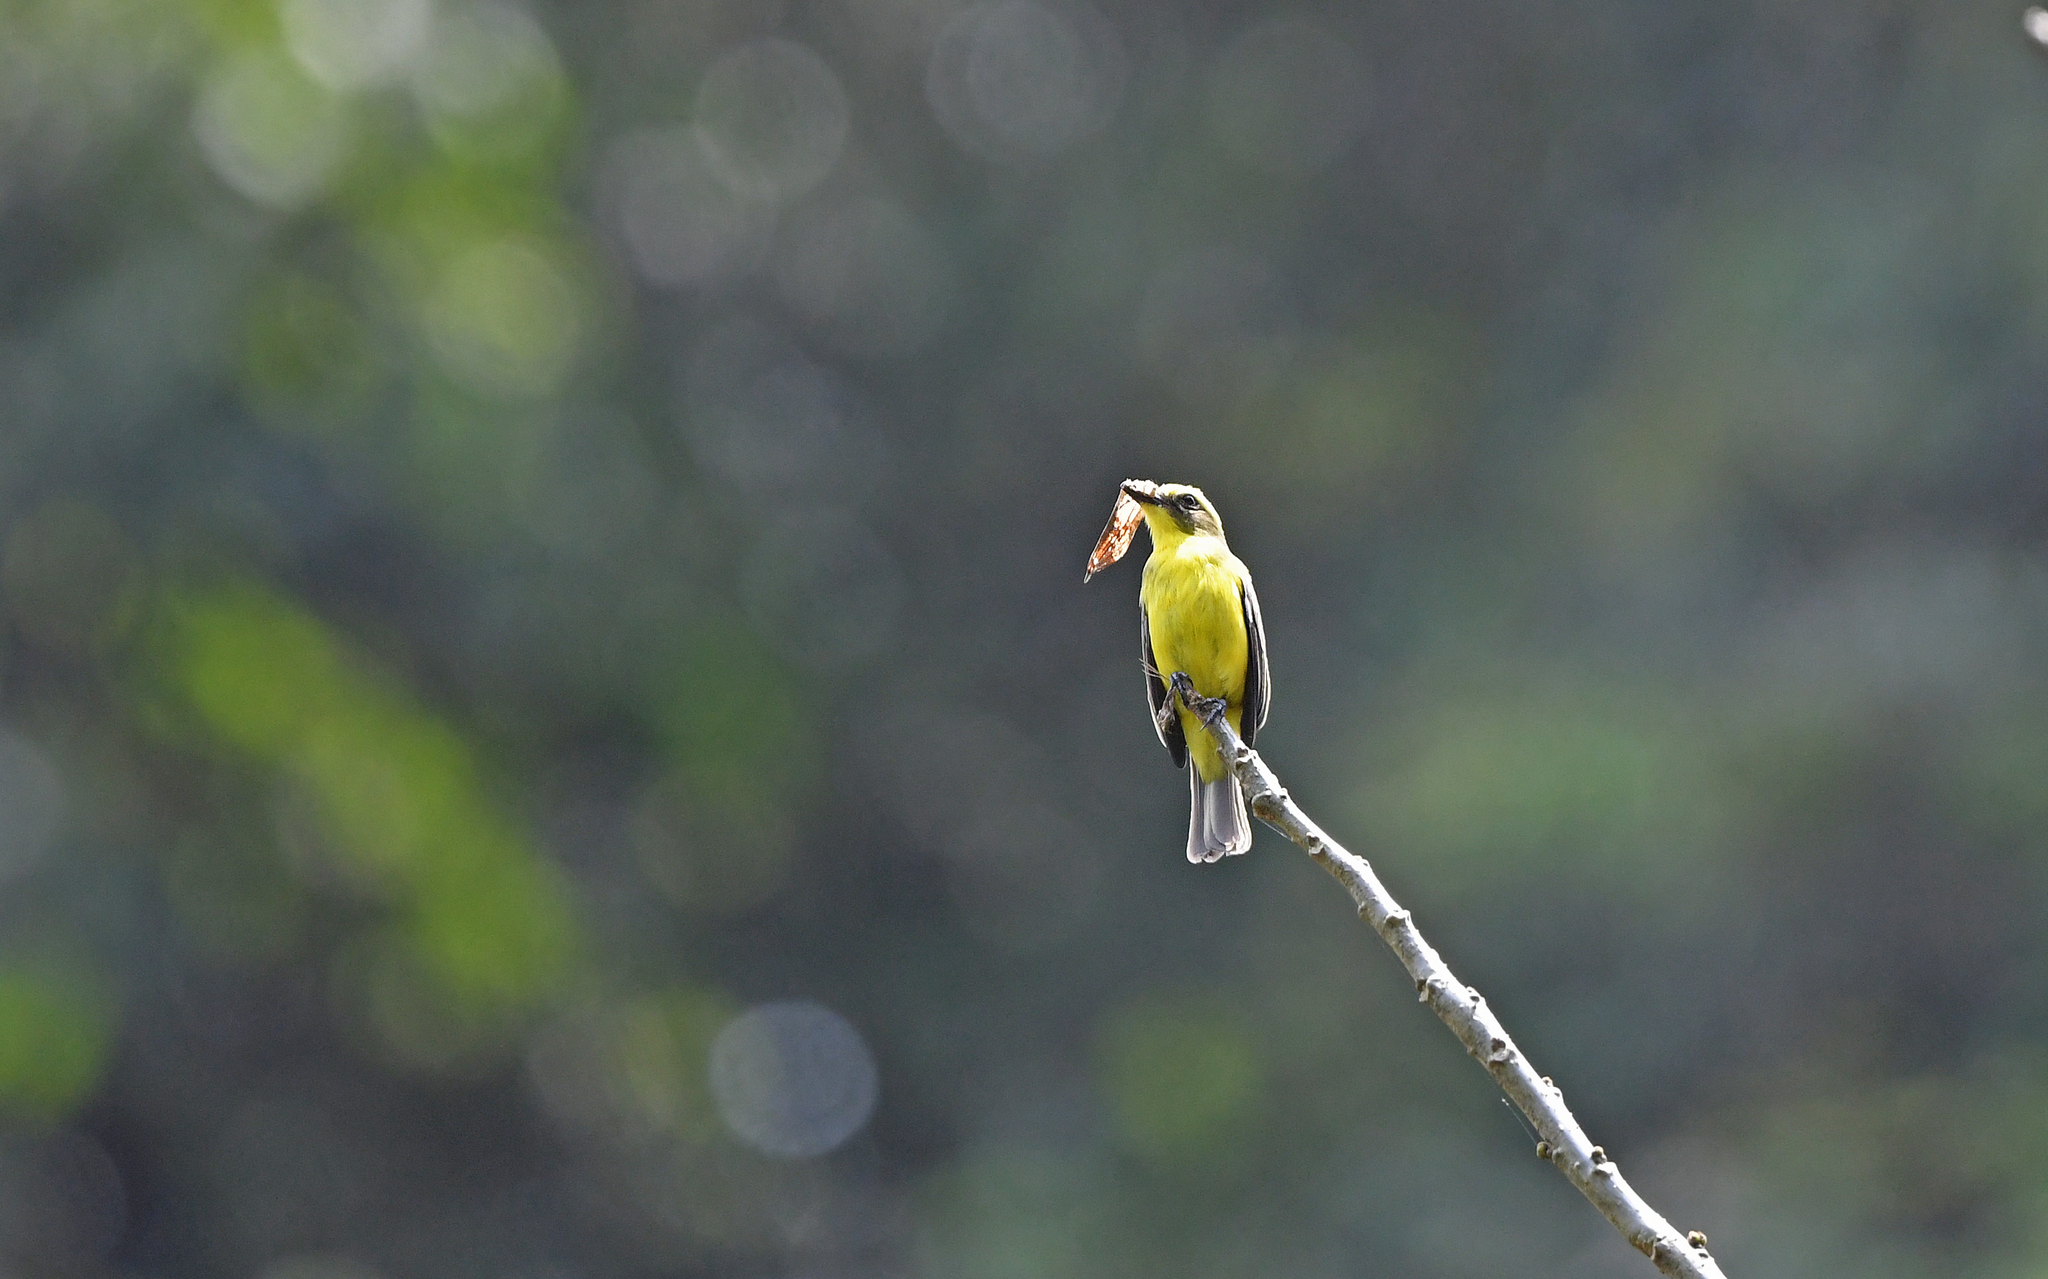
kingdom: Animalia
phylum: Chordata
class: Aves
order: Passeriformes
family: Tyrannidae
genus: Conopias
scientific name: Conopias cinchoneti
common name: Lemon-browed flycatcher
